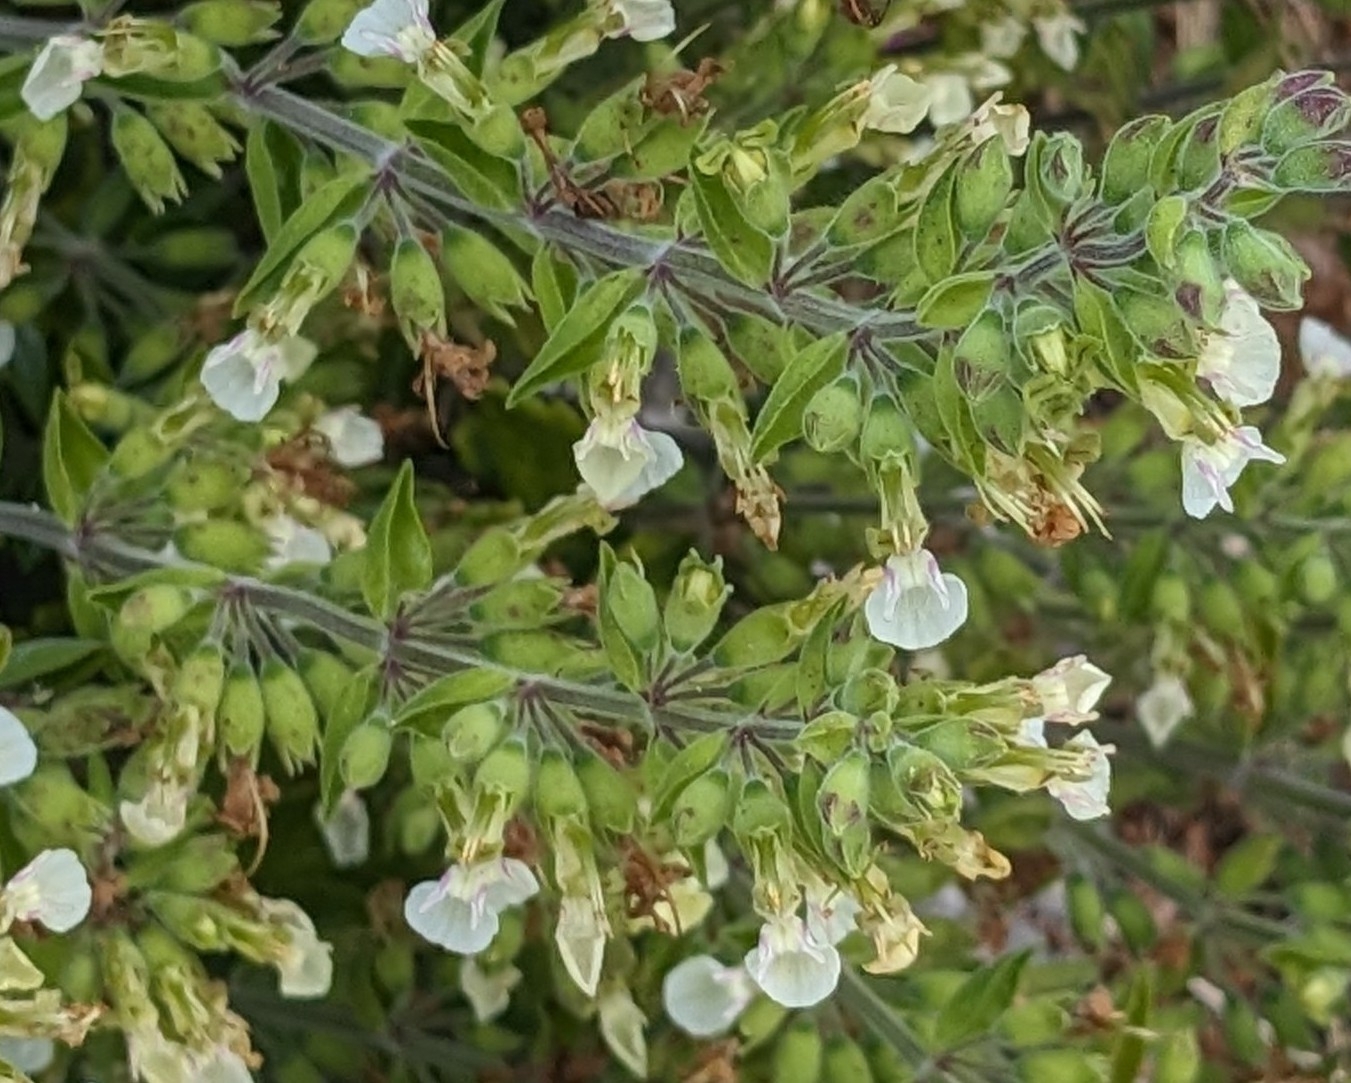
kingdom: Plantae
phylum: Tracheophyta
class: Magnoliopsida
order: Lamiales
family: Lamiaceae
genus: Teucrium
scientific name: Teucrium flavum
